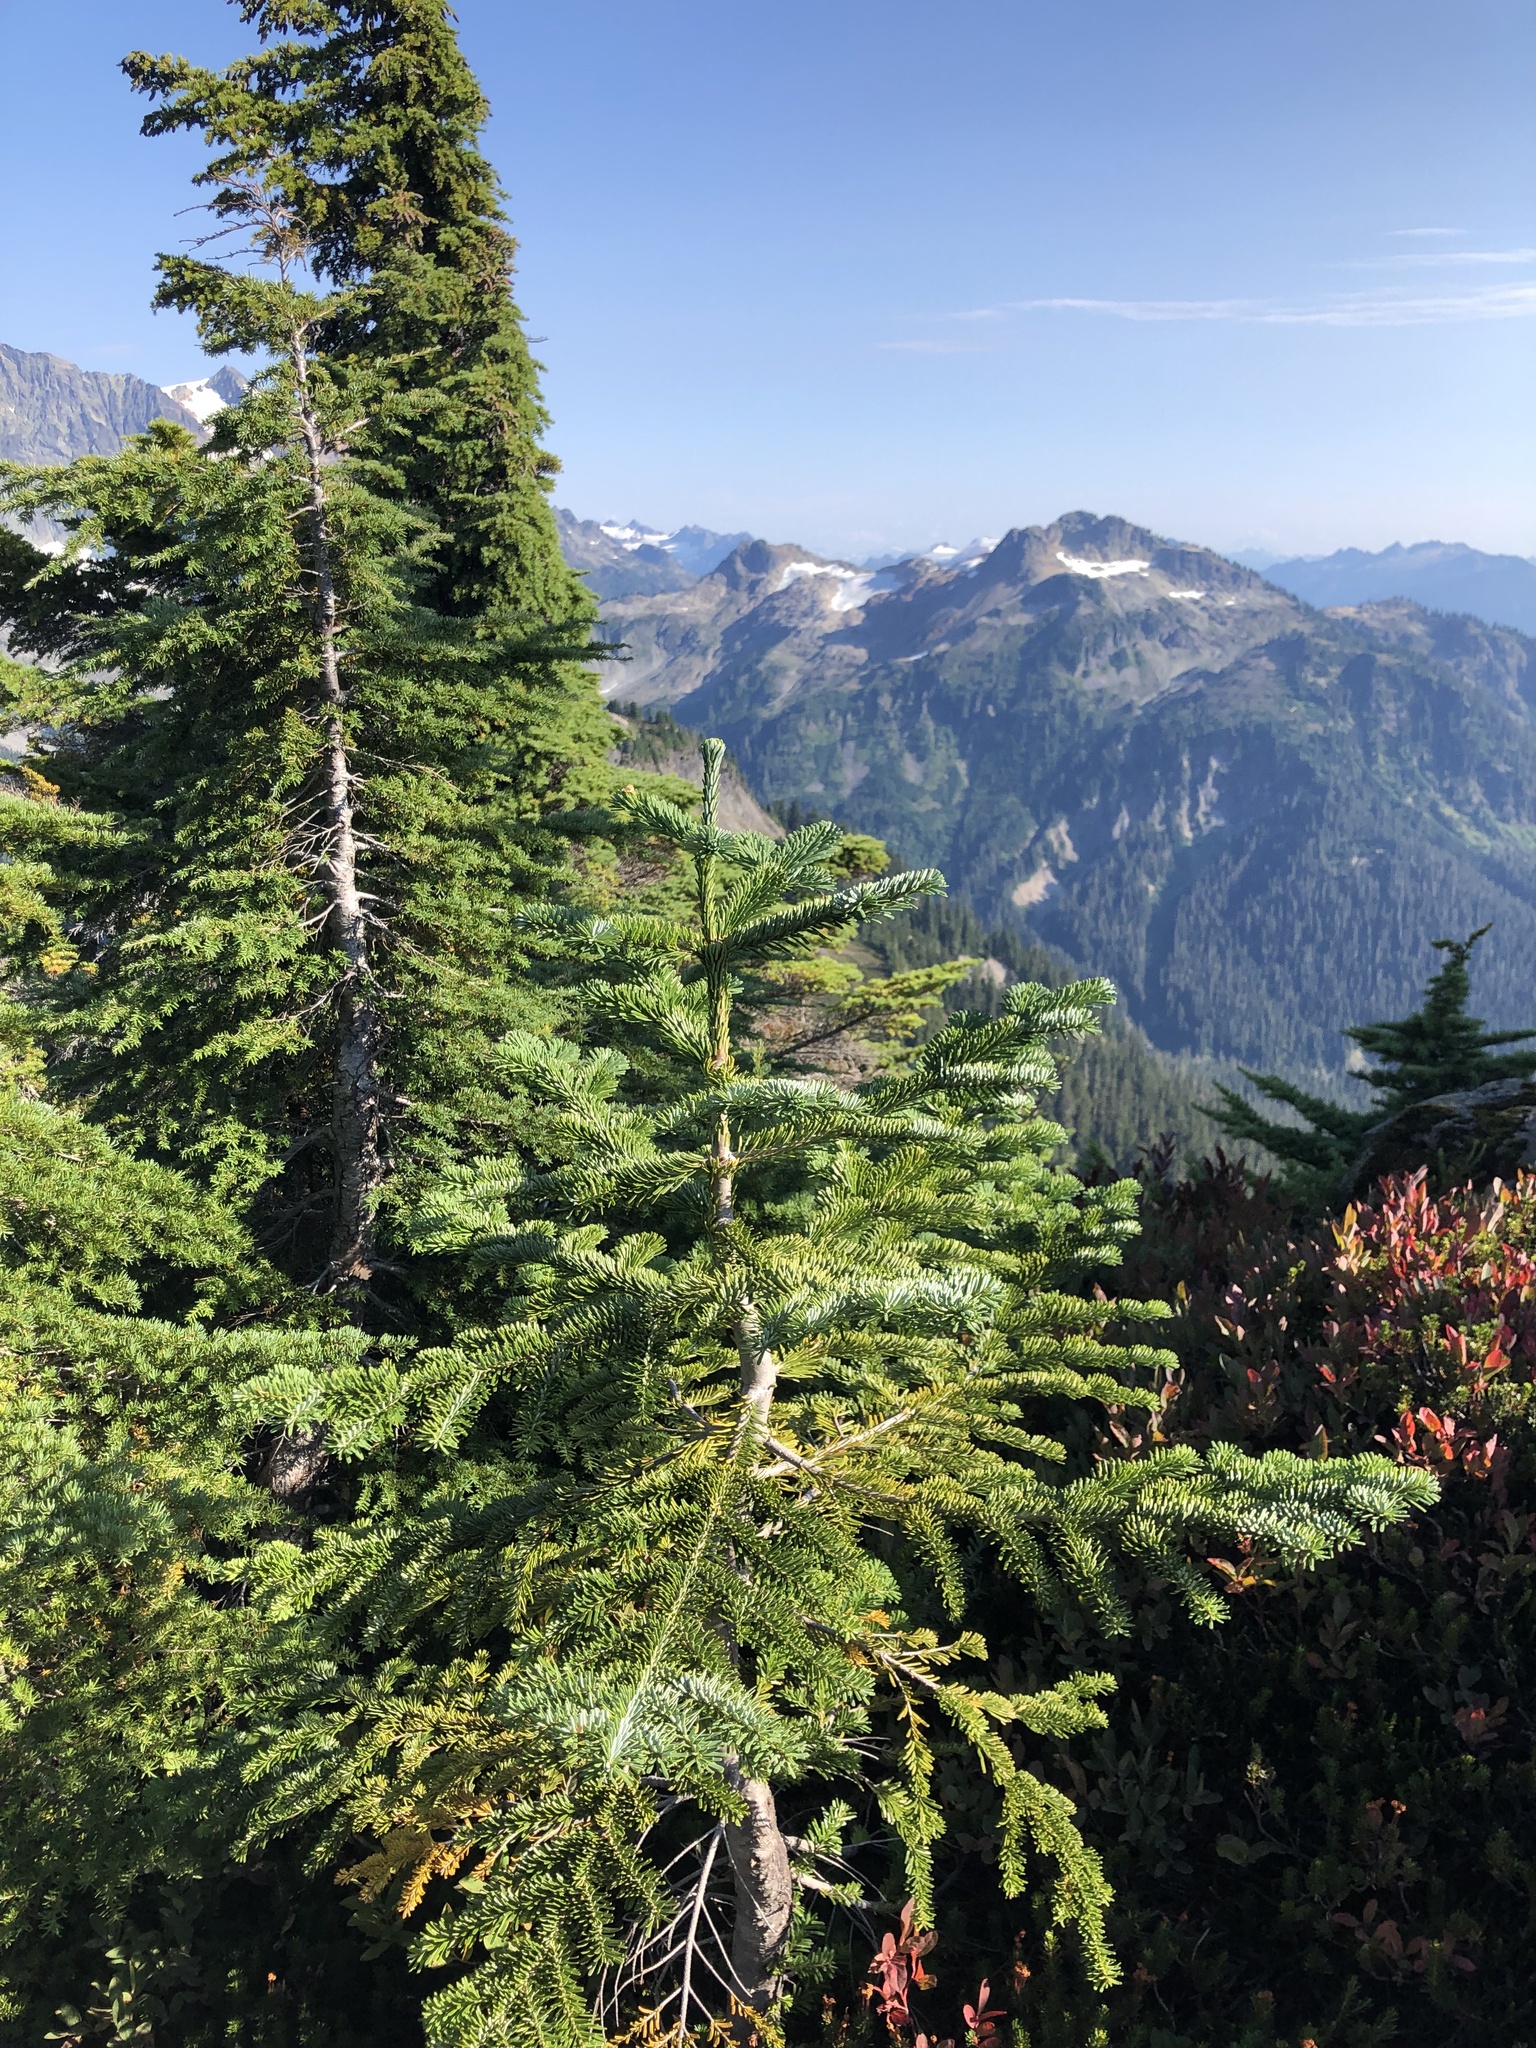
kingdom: Plantae
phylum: Tracheophyta
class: Pinopsida
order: Pinales
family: Pinaceae
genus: Abies
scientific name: Abies amabilis
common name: Pacific silver fir
